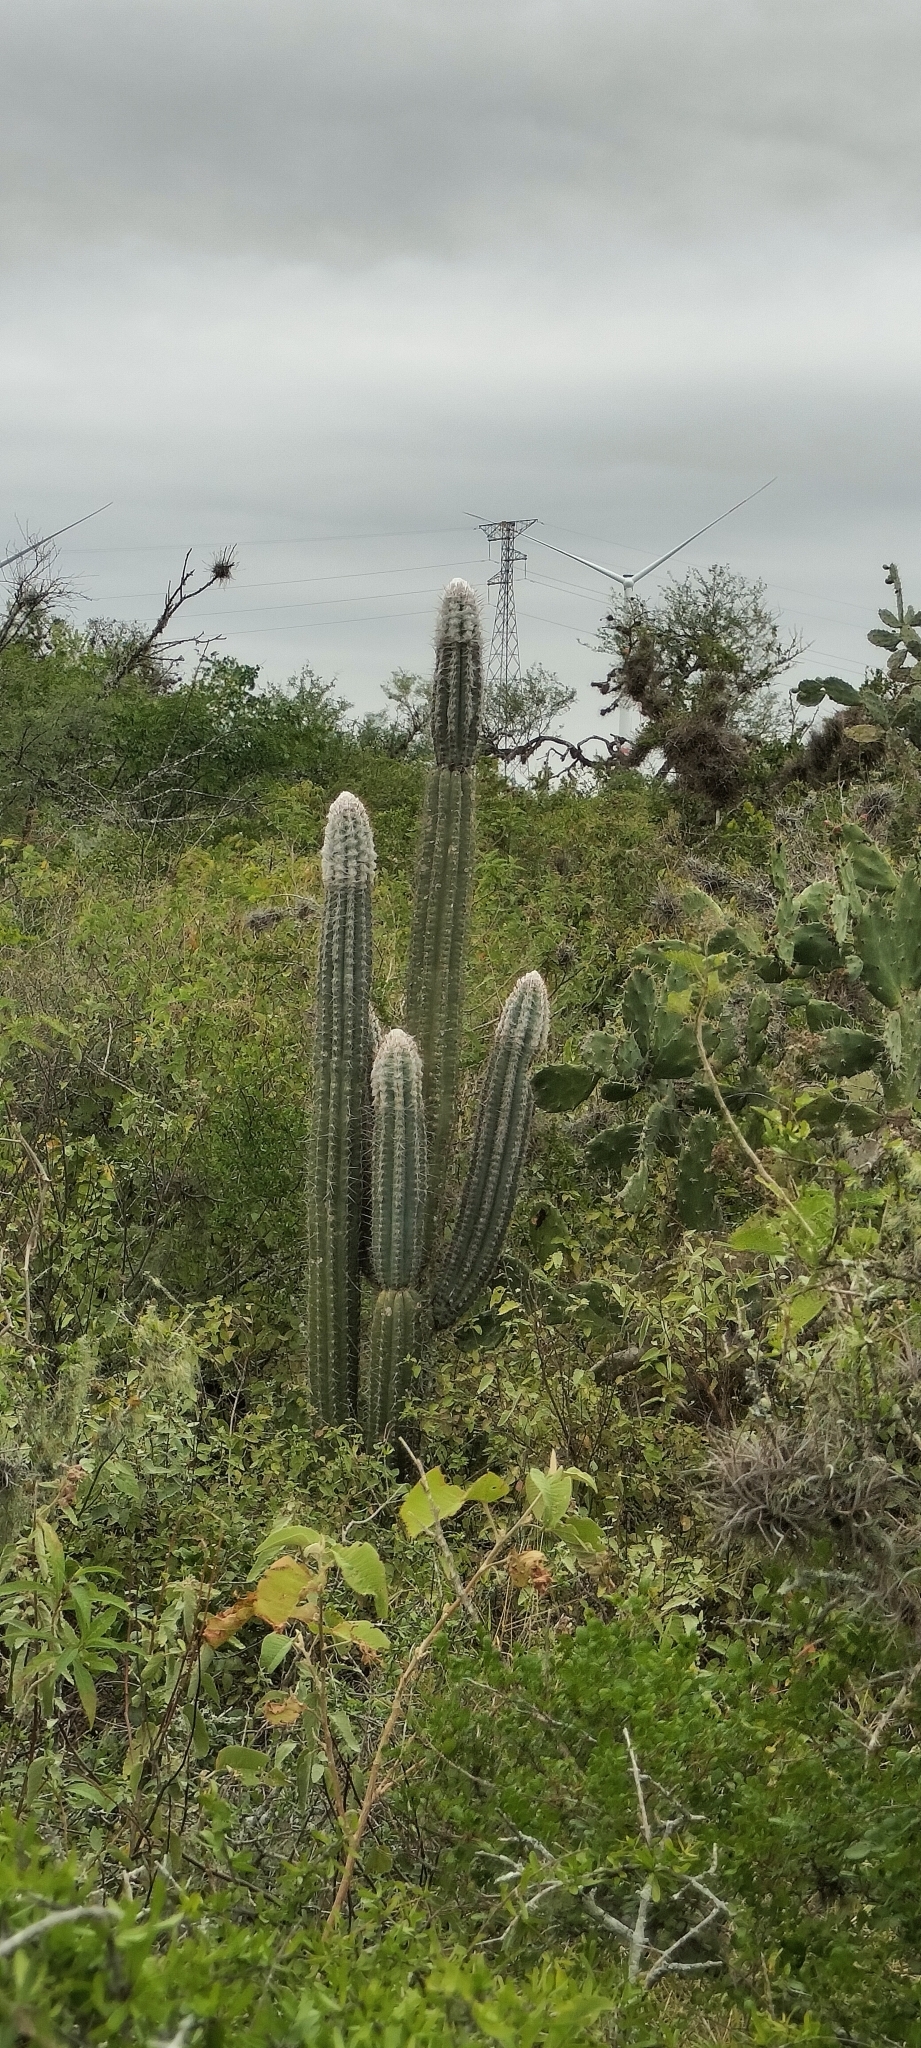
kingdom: Plantae
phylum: Tracheophyta
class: Magnoliopsida
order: Caryophyllales
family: Cactaceae
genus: Pilosocereus
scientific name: Pilosocereus leucocephalus
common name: Old man cactus
